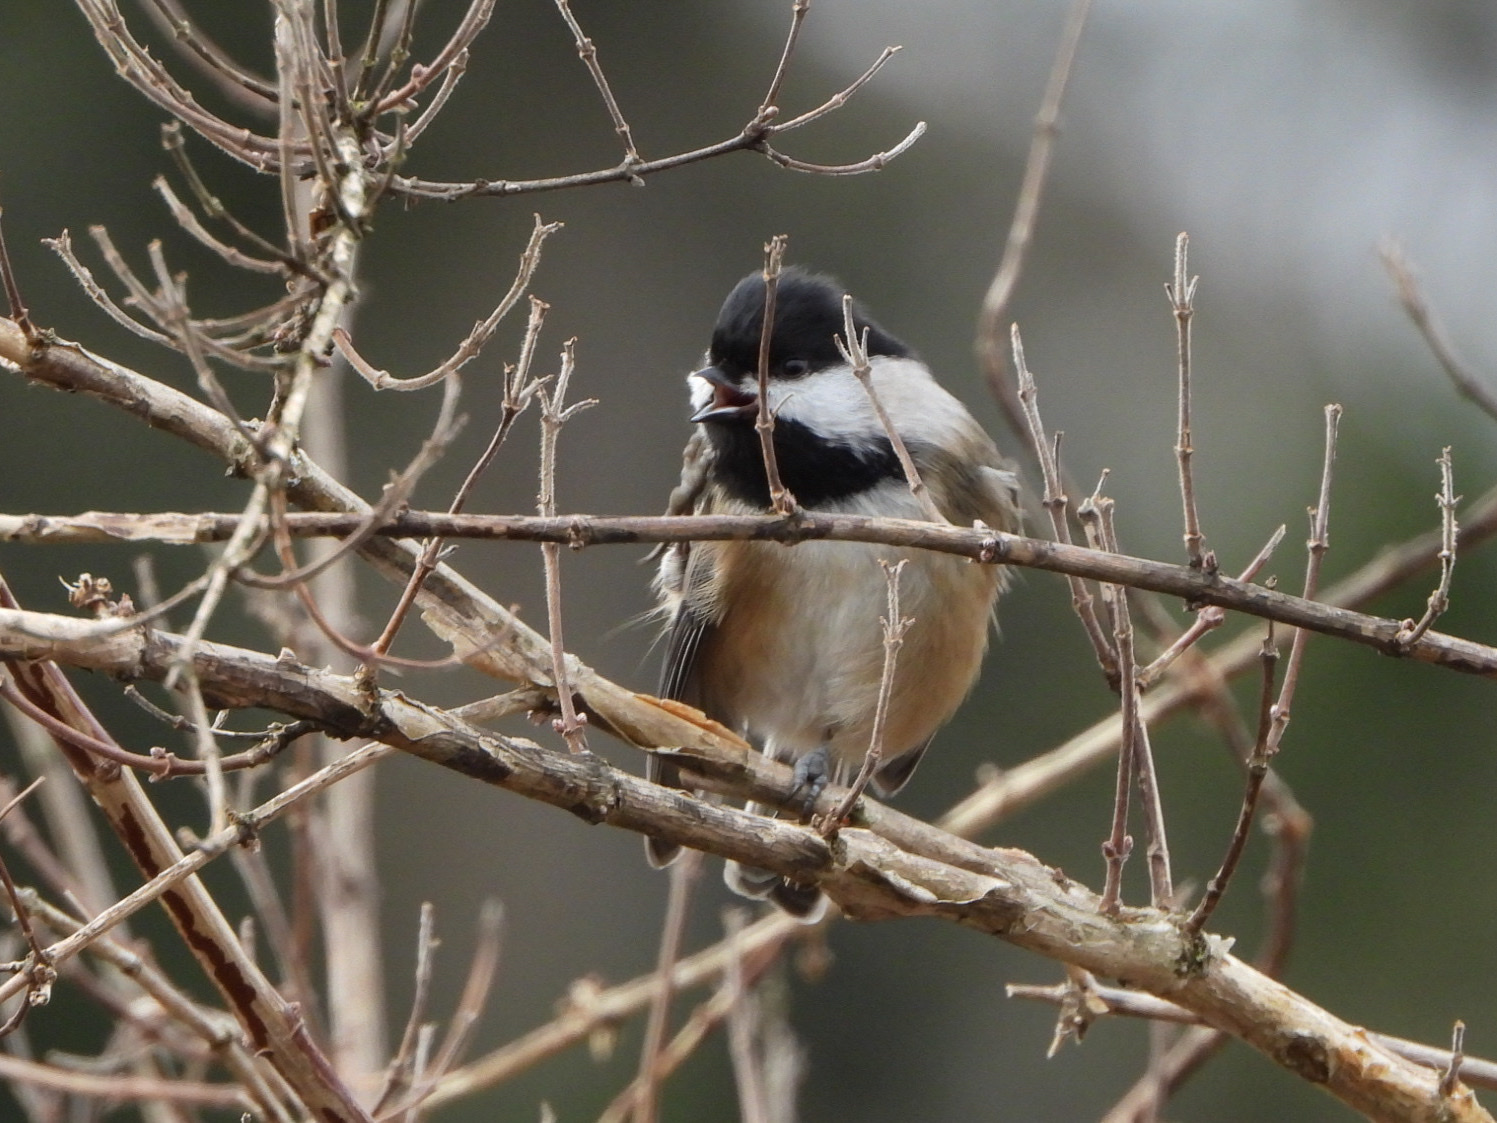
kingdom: Animalia
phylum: Chordata
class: Aves
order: Passeriformes
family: Paridae
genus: Poecile
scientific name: Poecile atricapillus
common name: Black-capped chickadee
